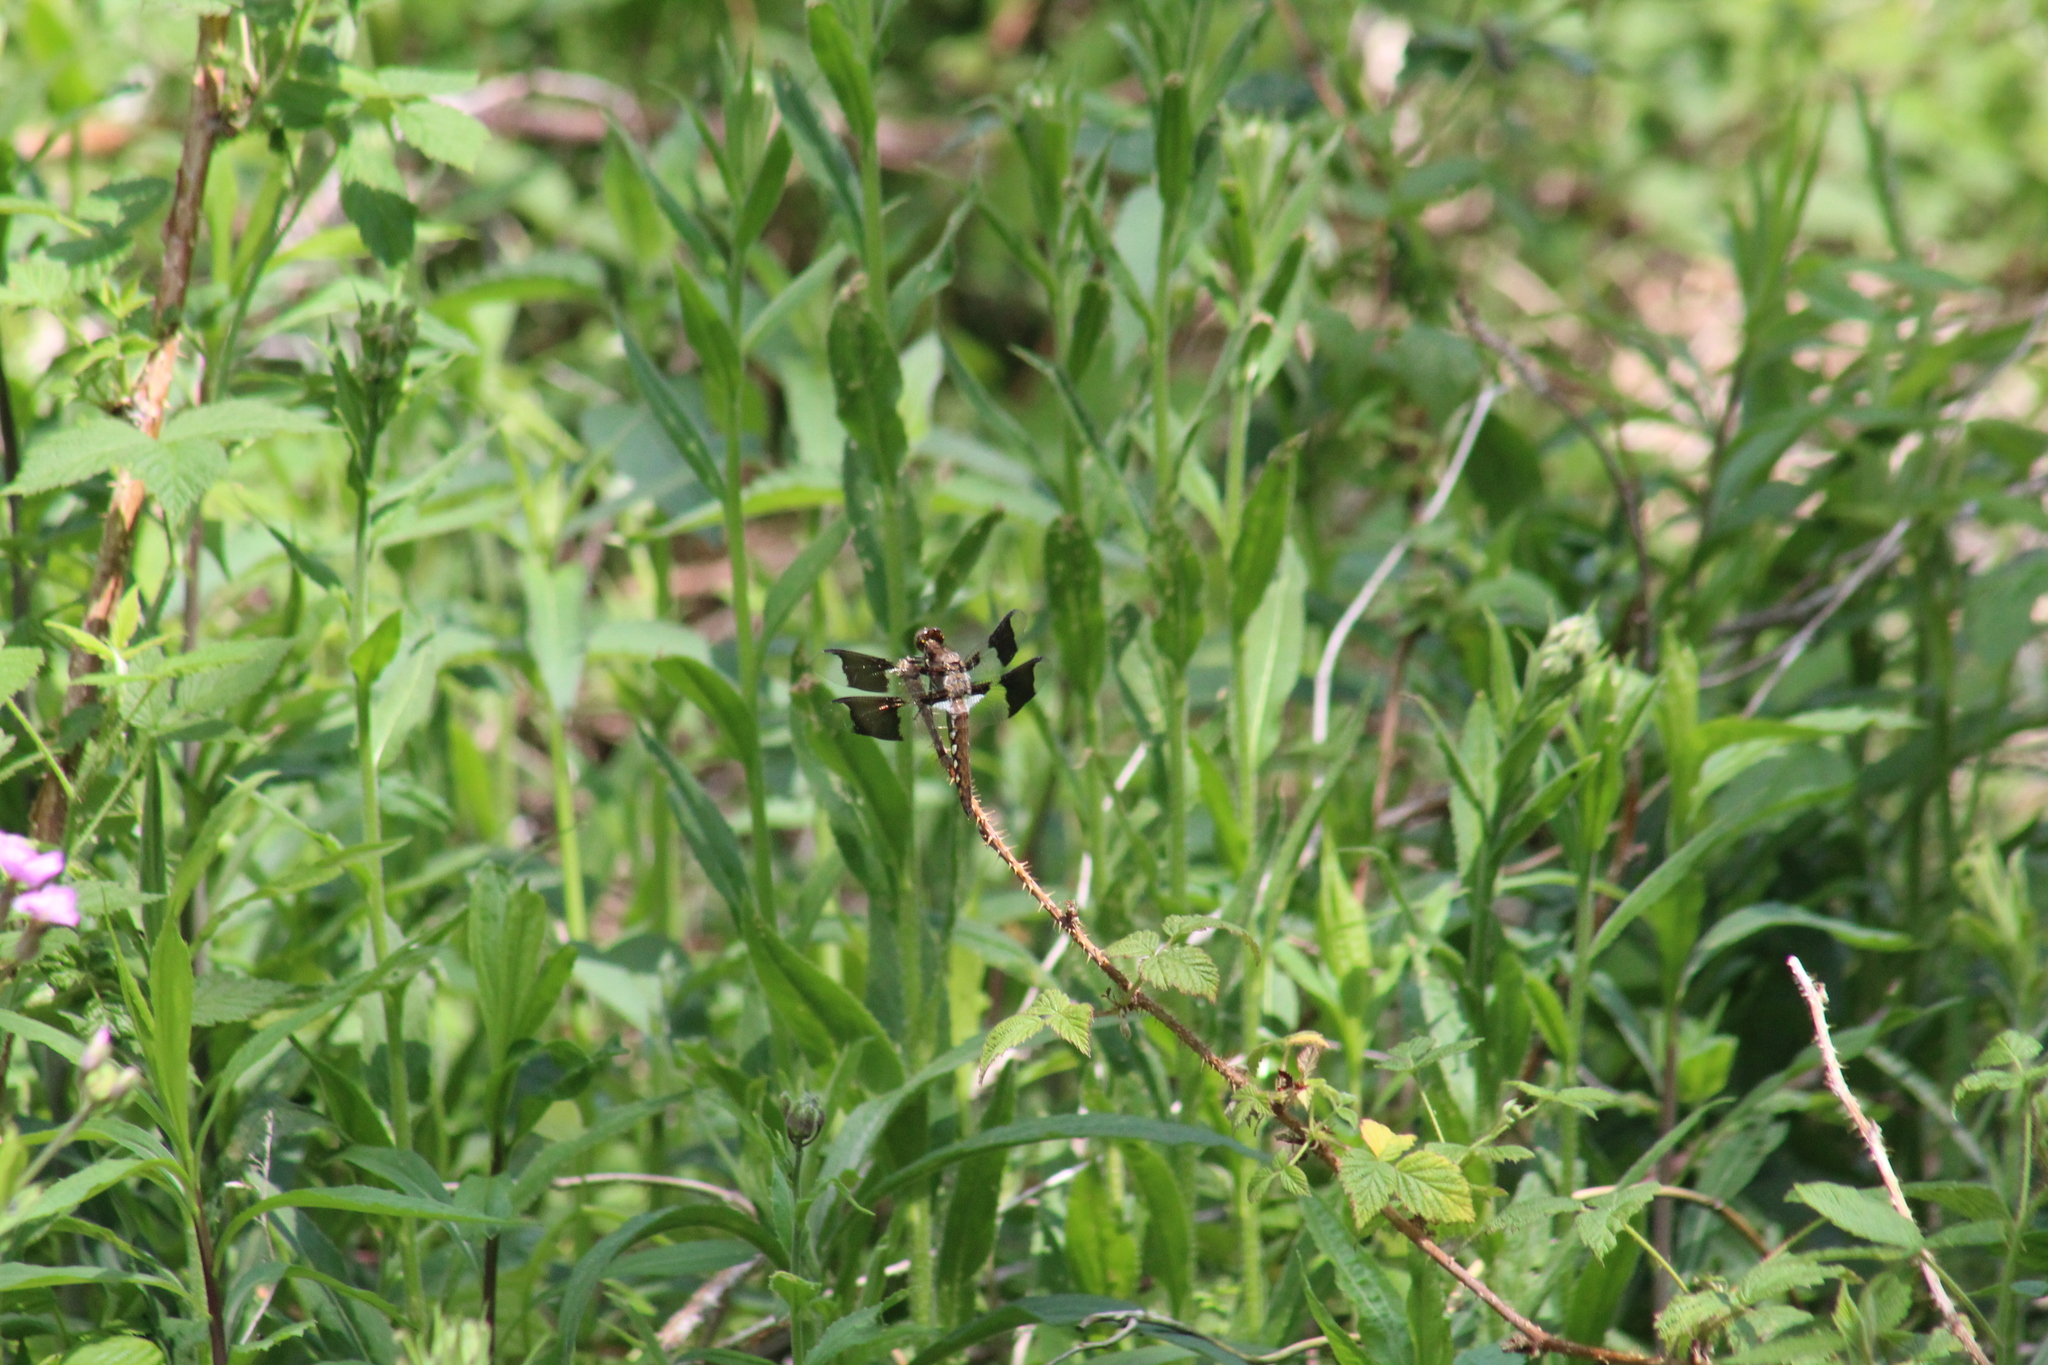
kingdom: Animalia
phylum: Arthropoda
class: Insecta
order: Odonata
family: Libellulidae
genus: Plathemis
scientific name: Plathemis lydia
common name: Common whitetail
